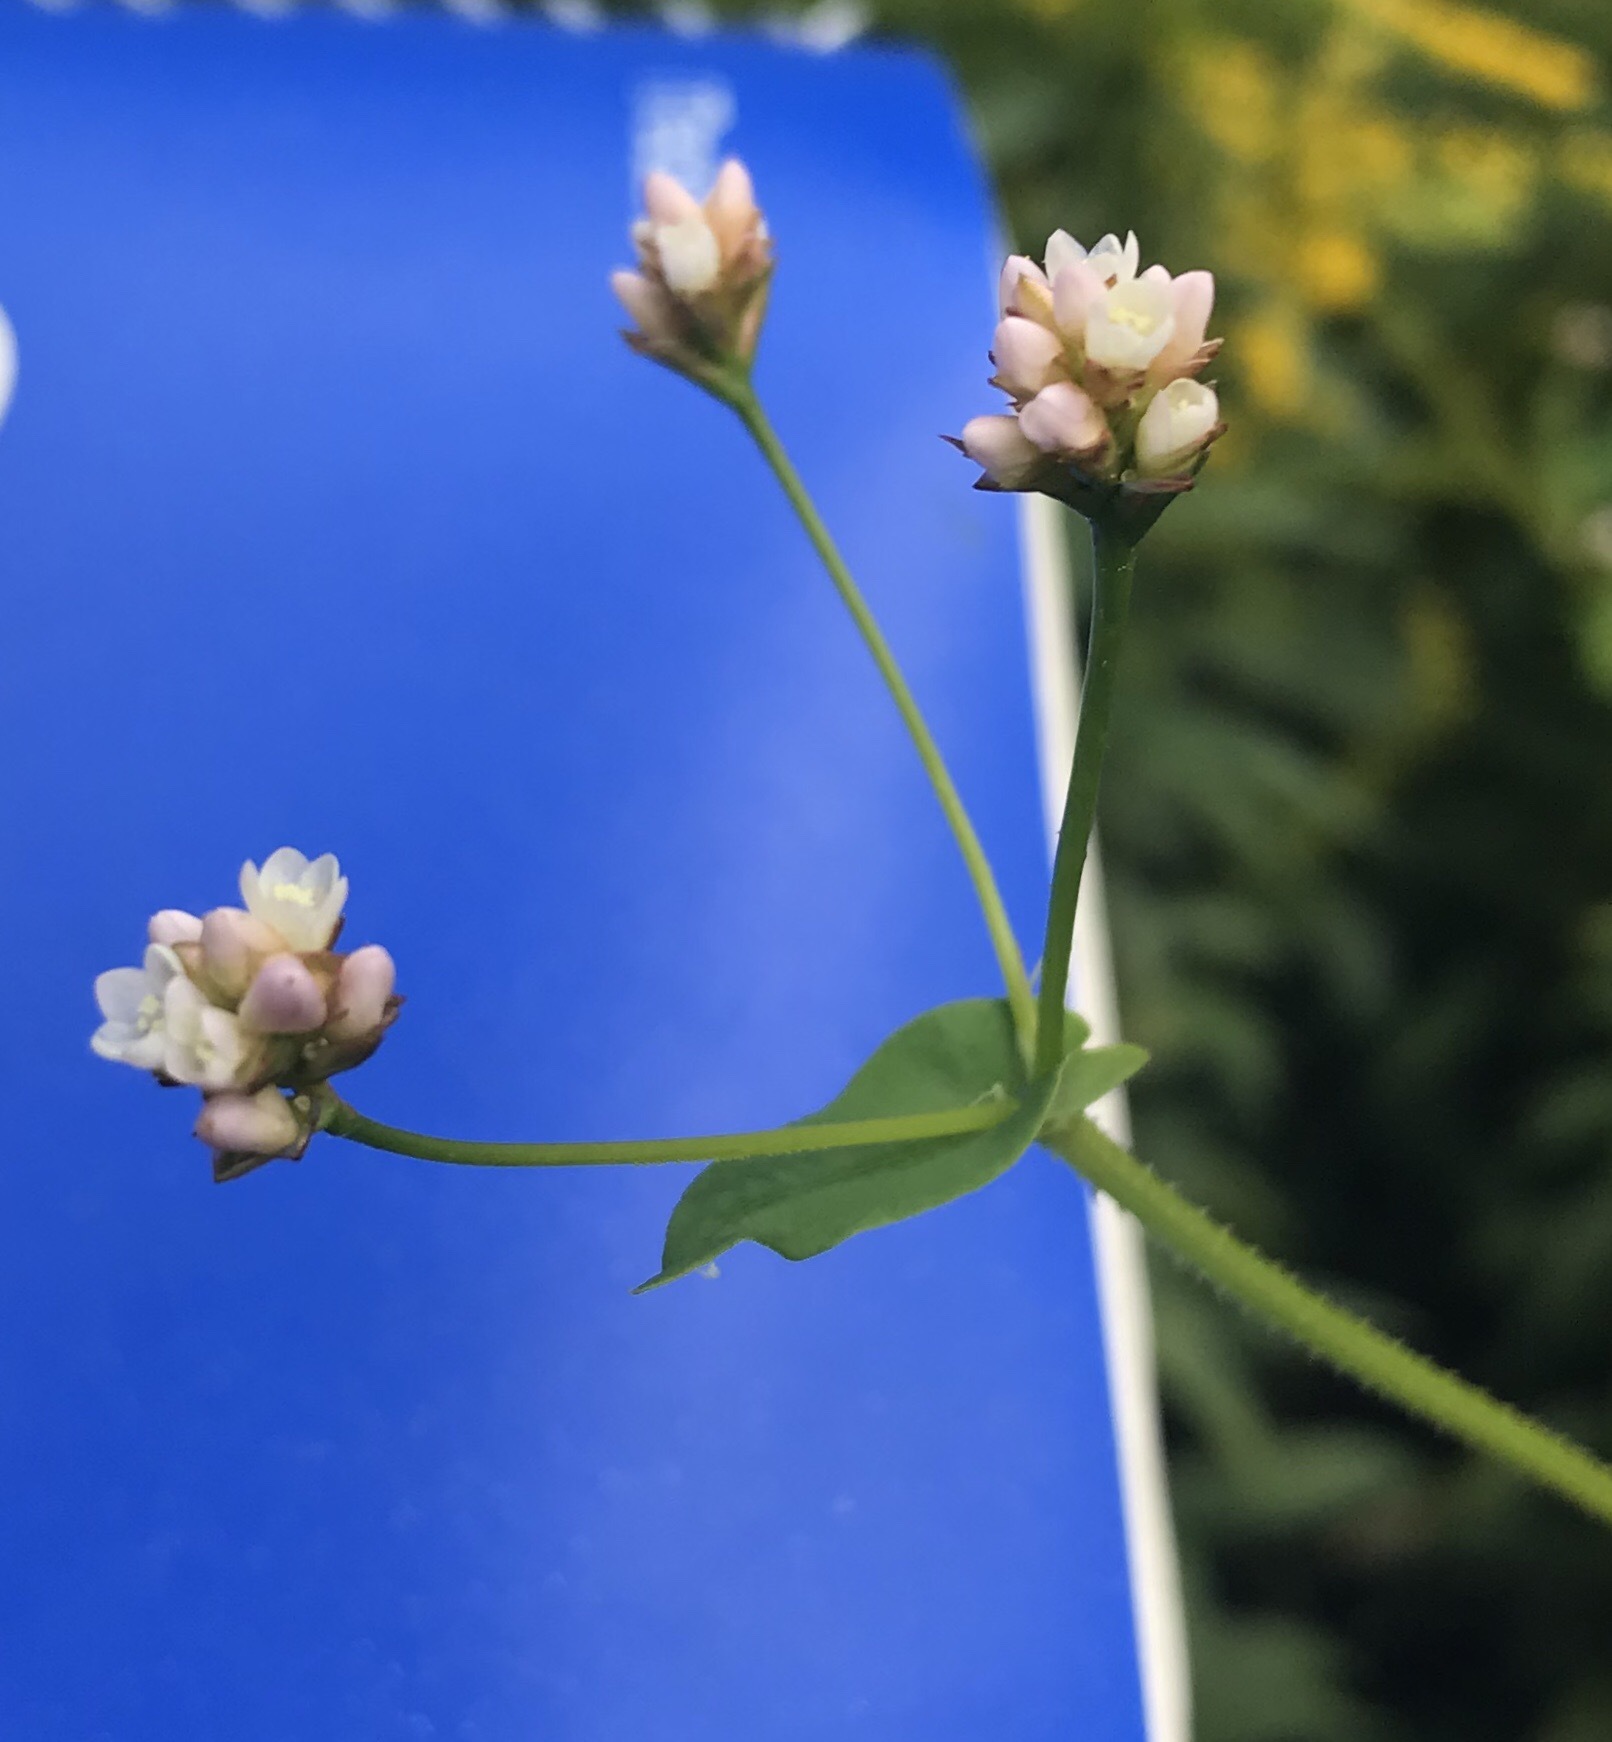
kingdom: Plantae
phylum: Tracheophyta
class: Magnoliopsida
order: Caryophyllales
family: Polygonaceae
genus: Persicaria
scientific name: Persicaria sagittata
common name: American tearthumb
